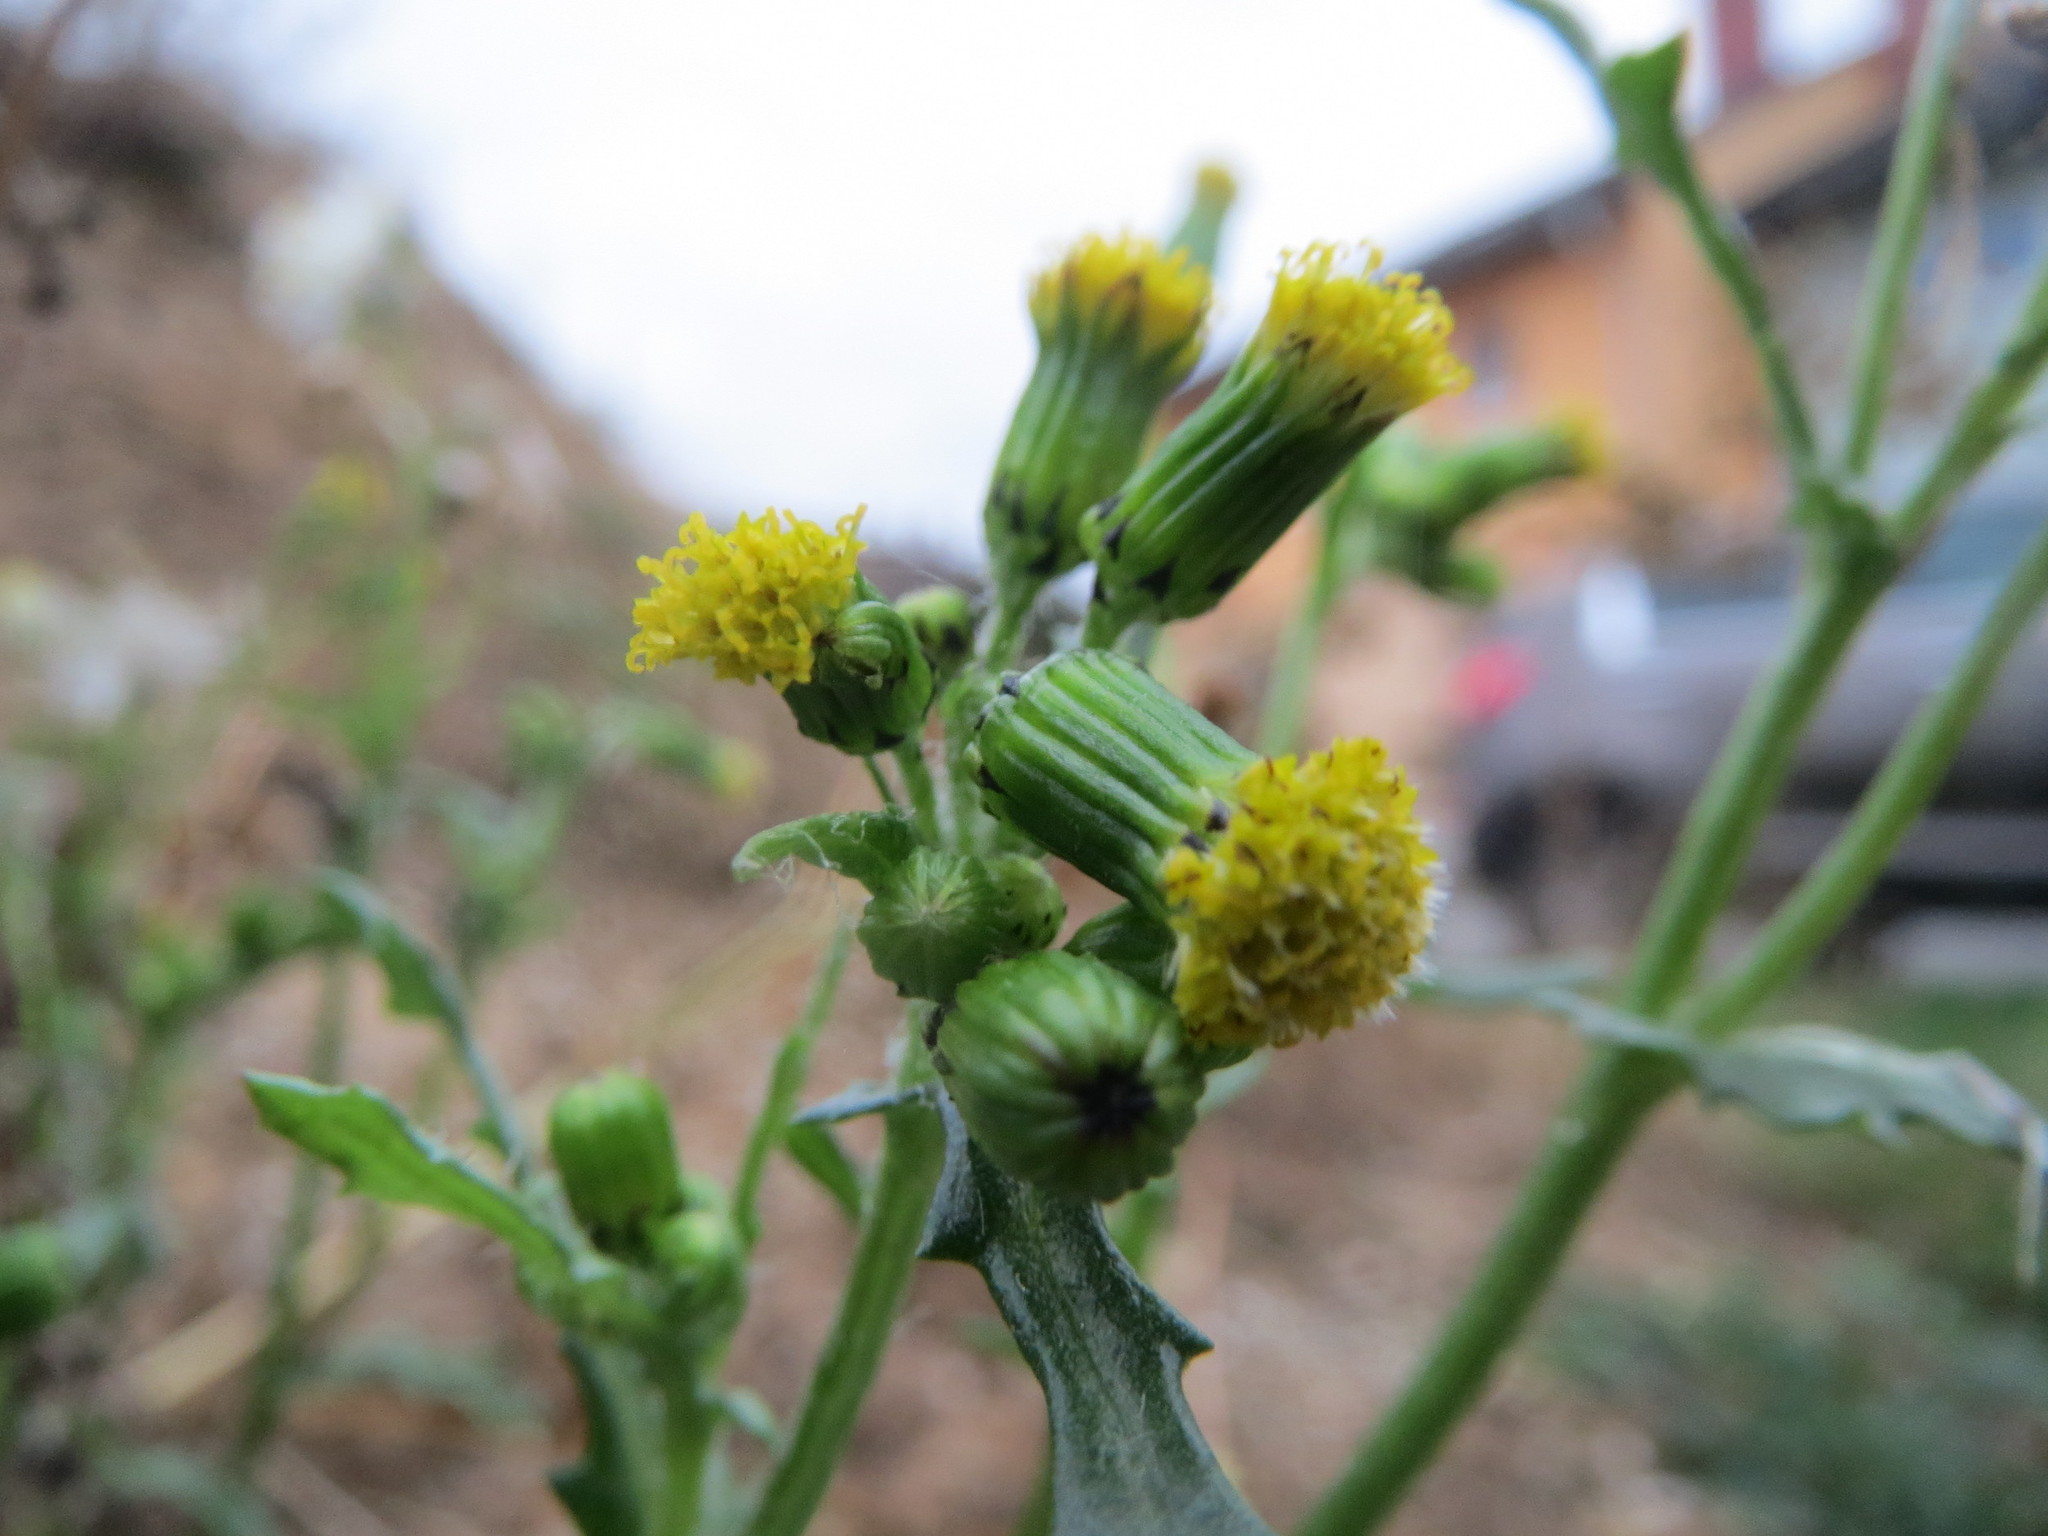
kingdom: Plantae
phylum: Tracheophyta
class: Magnoliopsida
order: Asterales
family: Asteraceae
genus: Senecio
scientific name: Senecio vulgaris
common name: Old-man-in-the-spring
